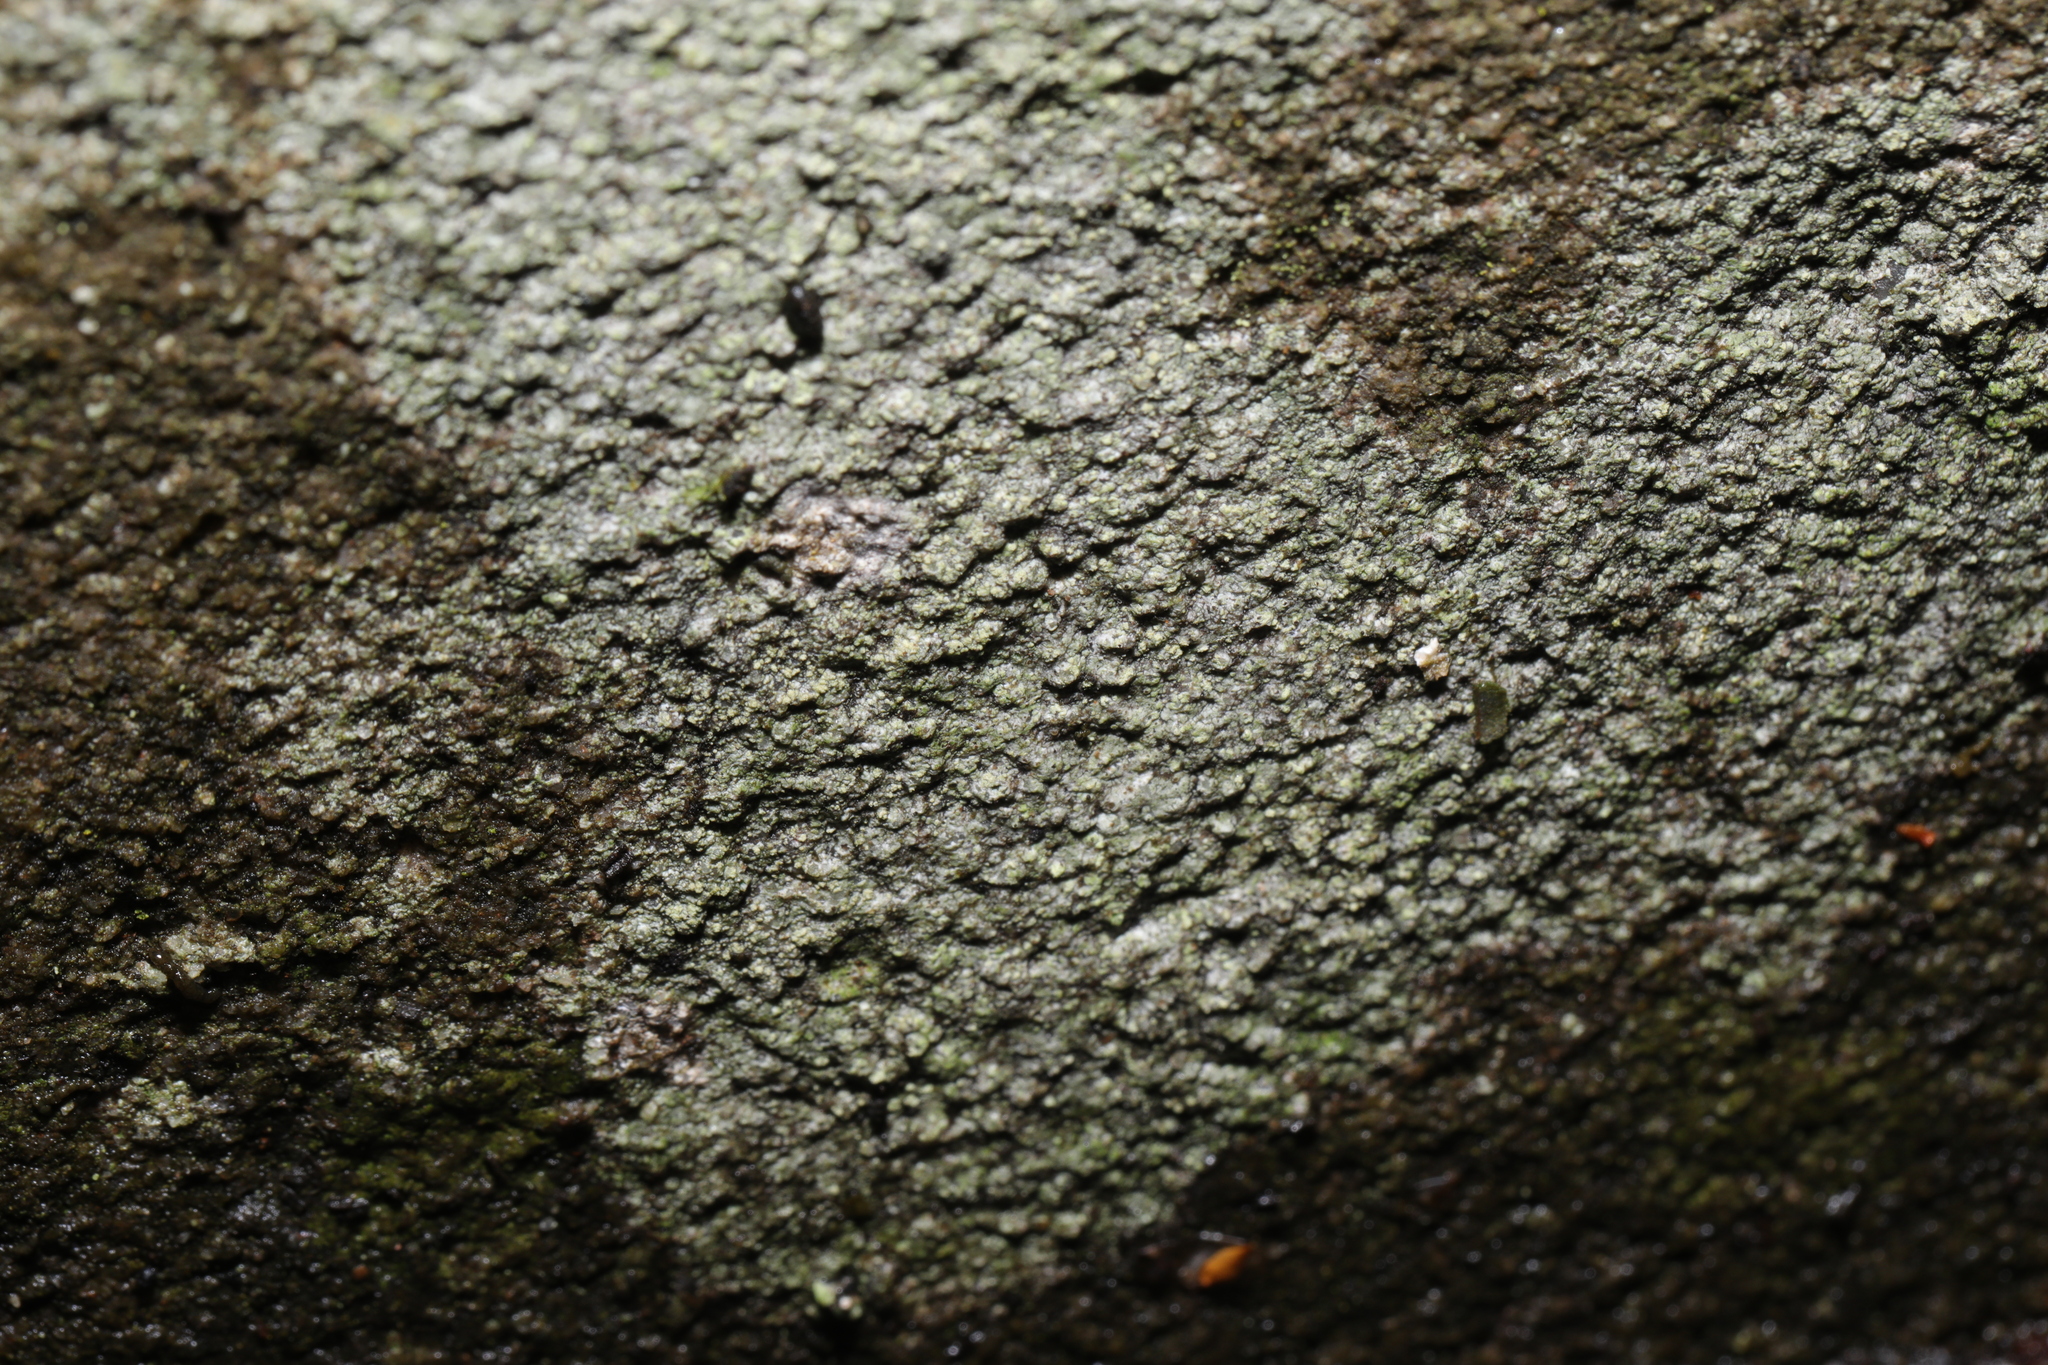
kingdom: Fungi
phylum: Ascomycota
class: Lecanoromycetes
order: Pertusariales
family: Pertusariaceae
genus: Pertusaria
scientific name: Pertusaria hymenea
